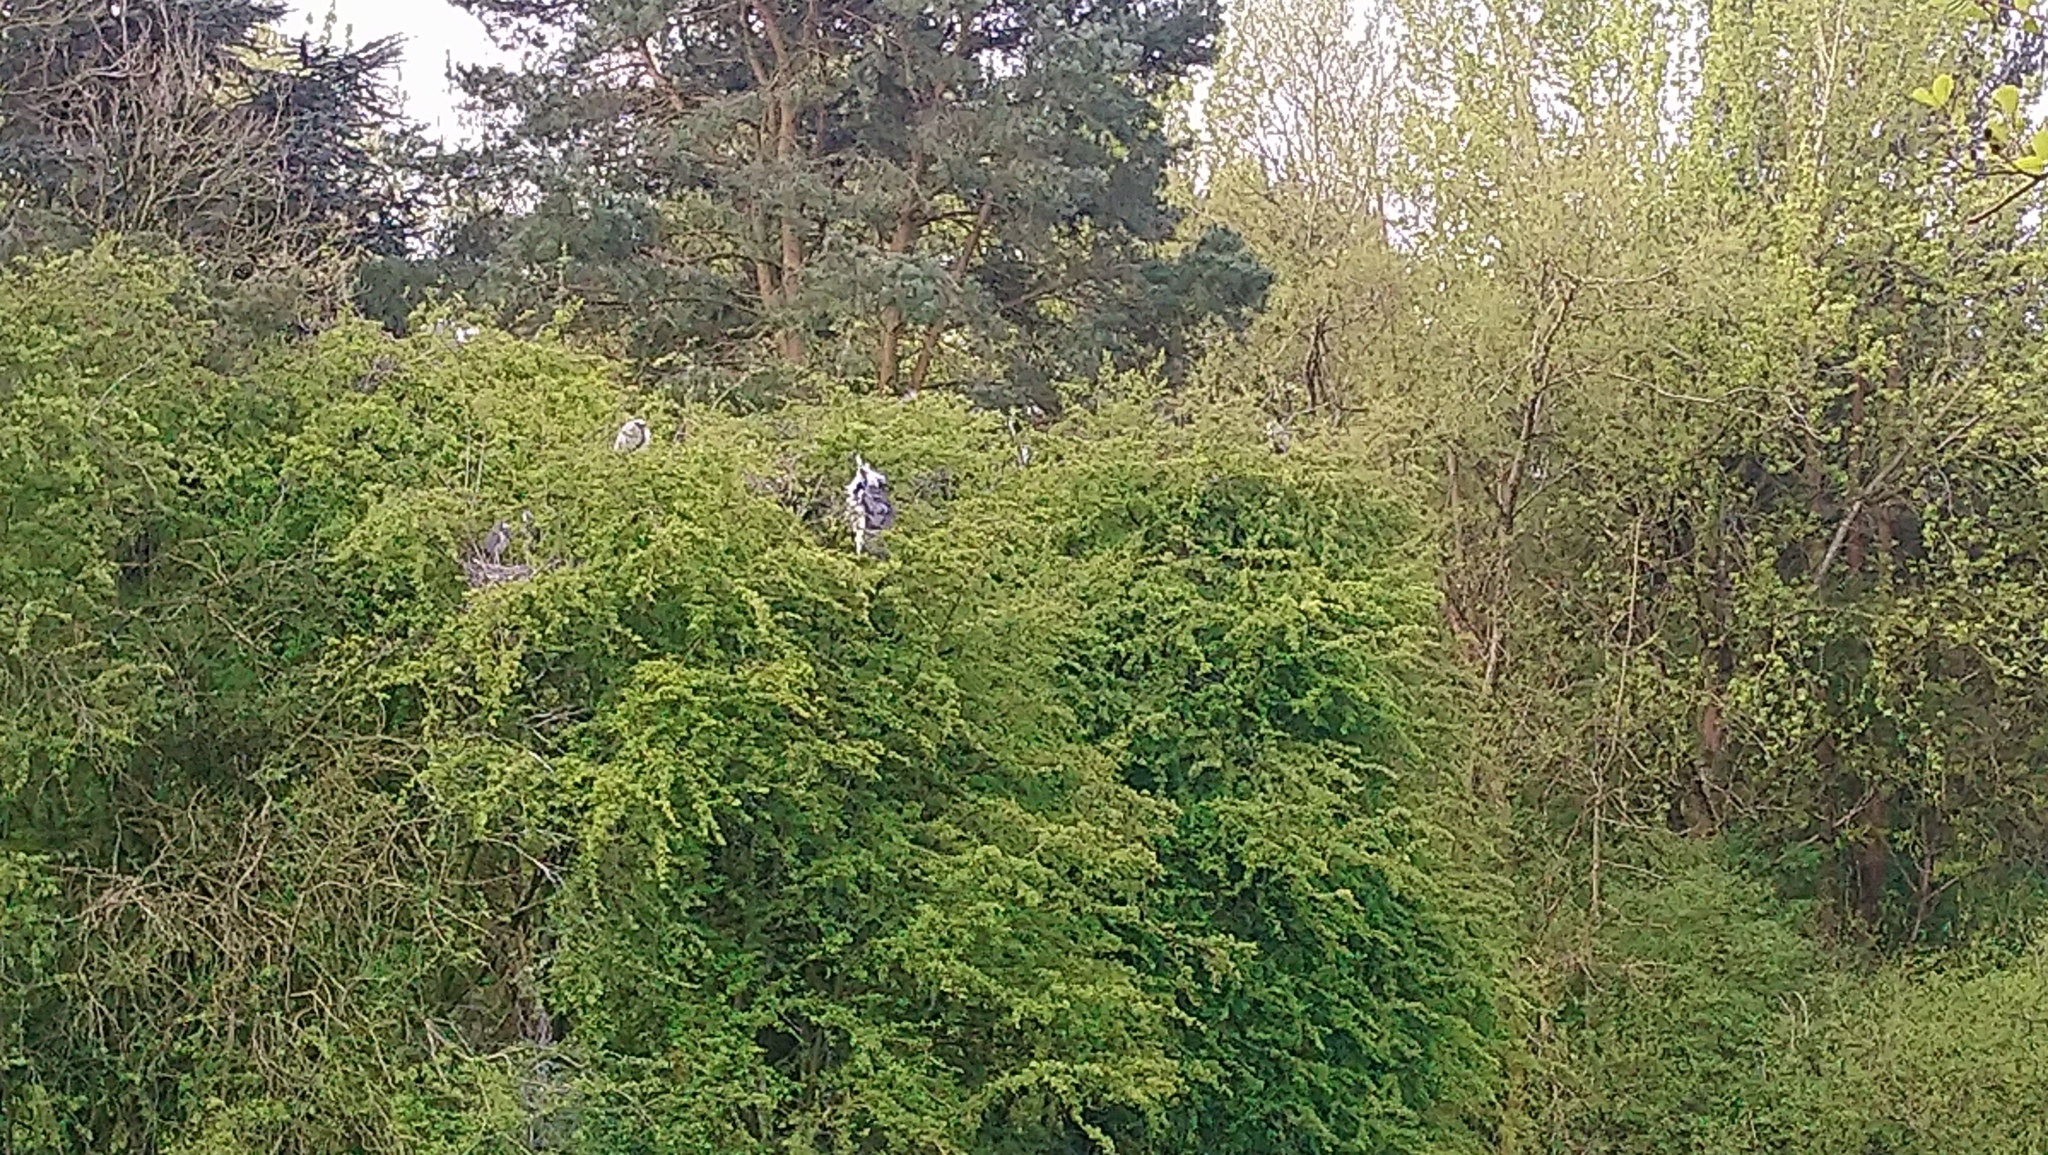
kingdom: Animalia
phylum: Chordata
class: Aves
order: Pelecaniformes
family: Ardeidae
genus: Ardea
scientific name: Ardea cinerea
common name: Grey heron
